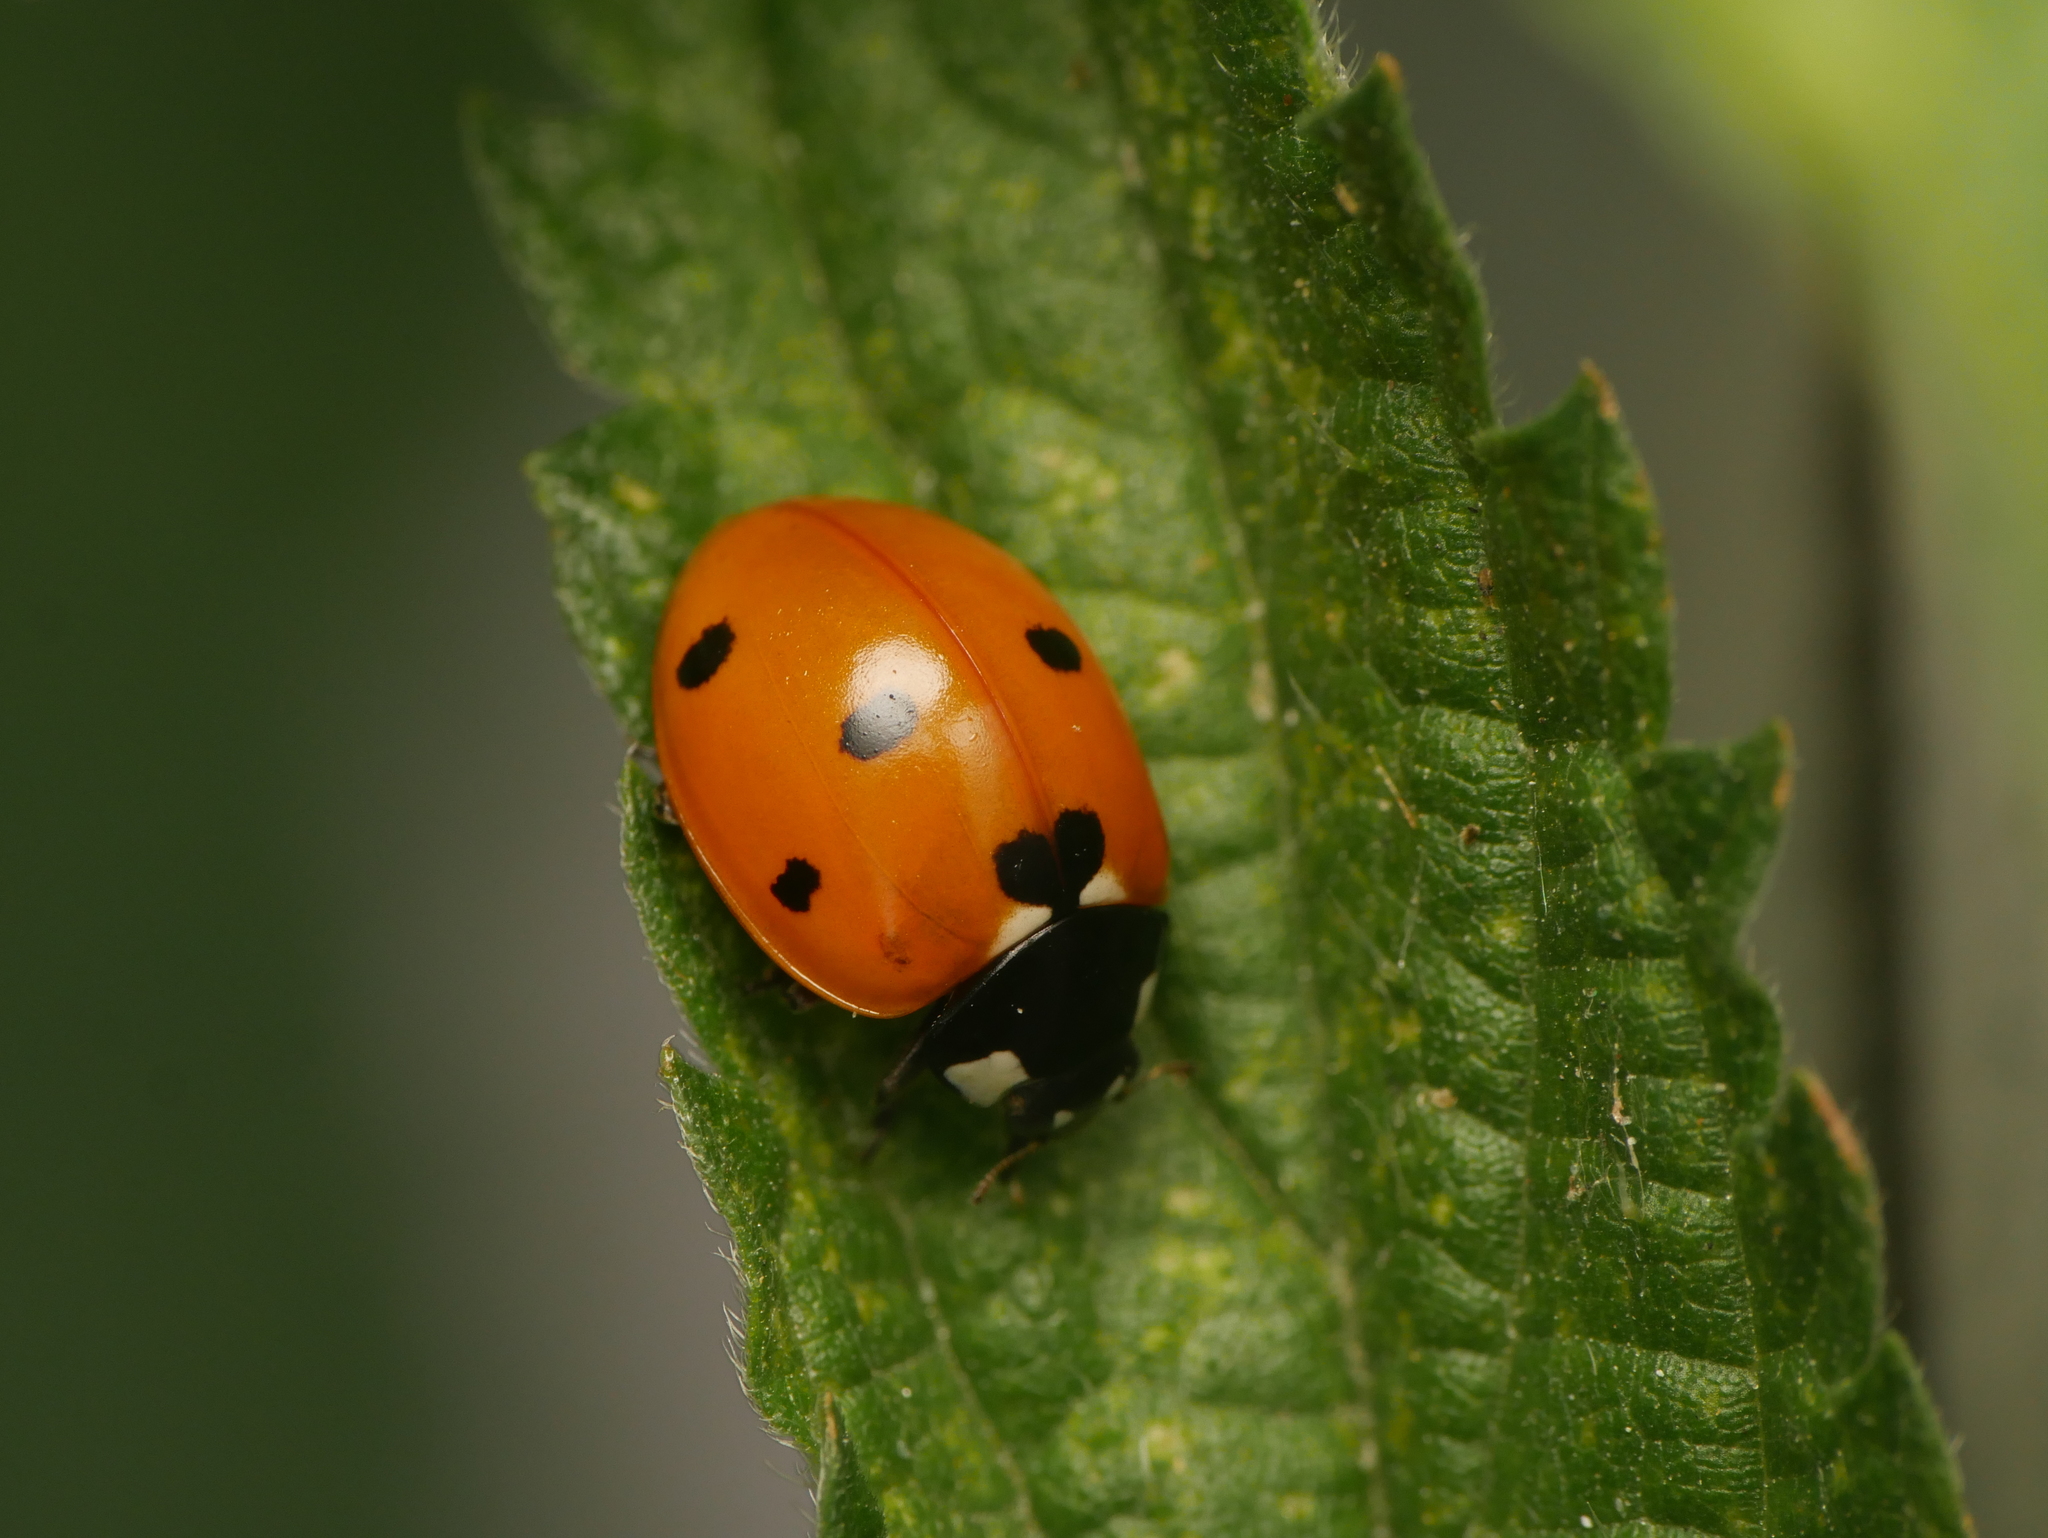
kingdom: Animalia
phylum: Arthropoda
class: Insecta
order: Coleoptera
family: Coccinellidae
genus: Coccinella
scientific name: Coccinella septempunctata
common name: Sevenspotted lady beetle
